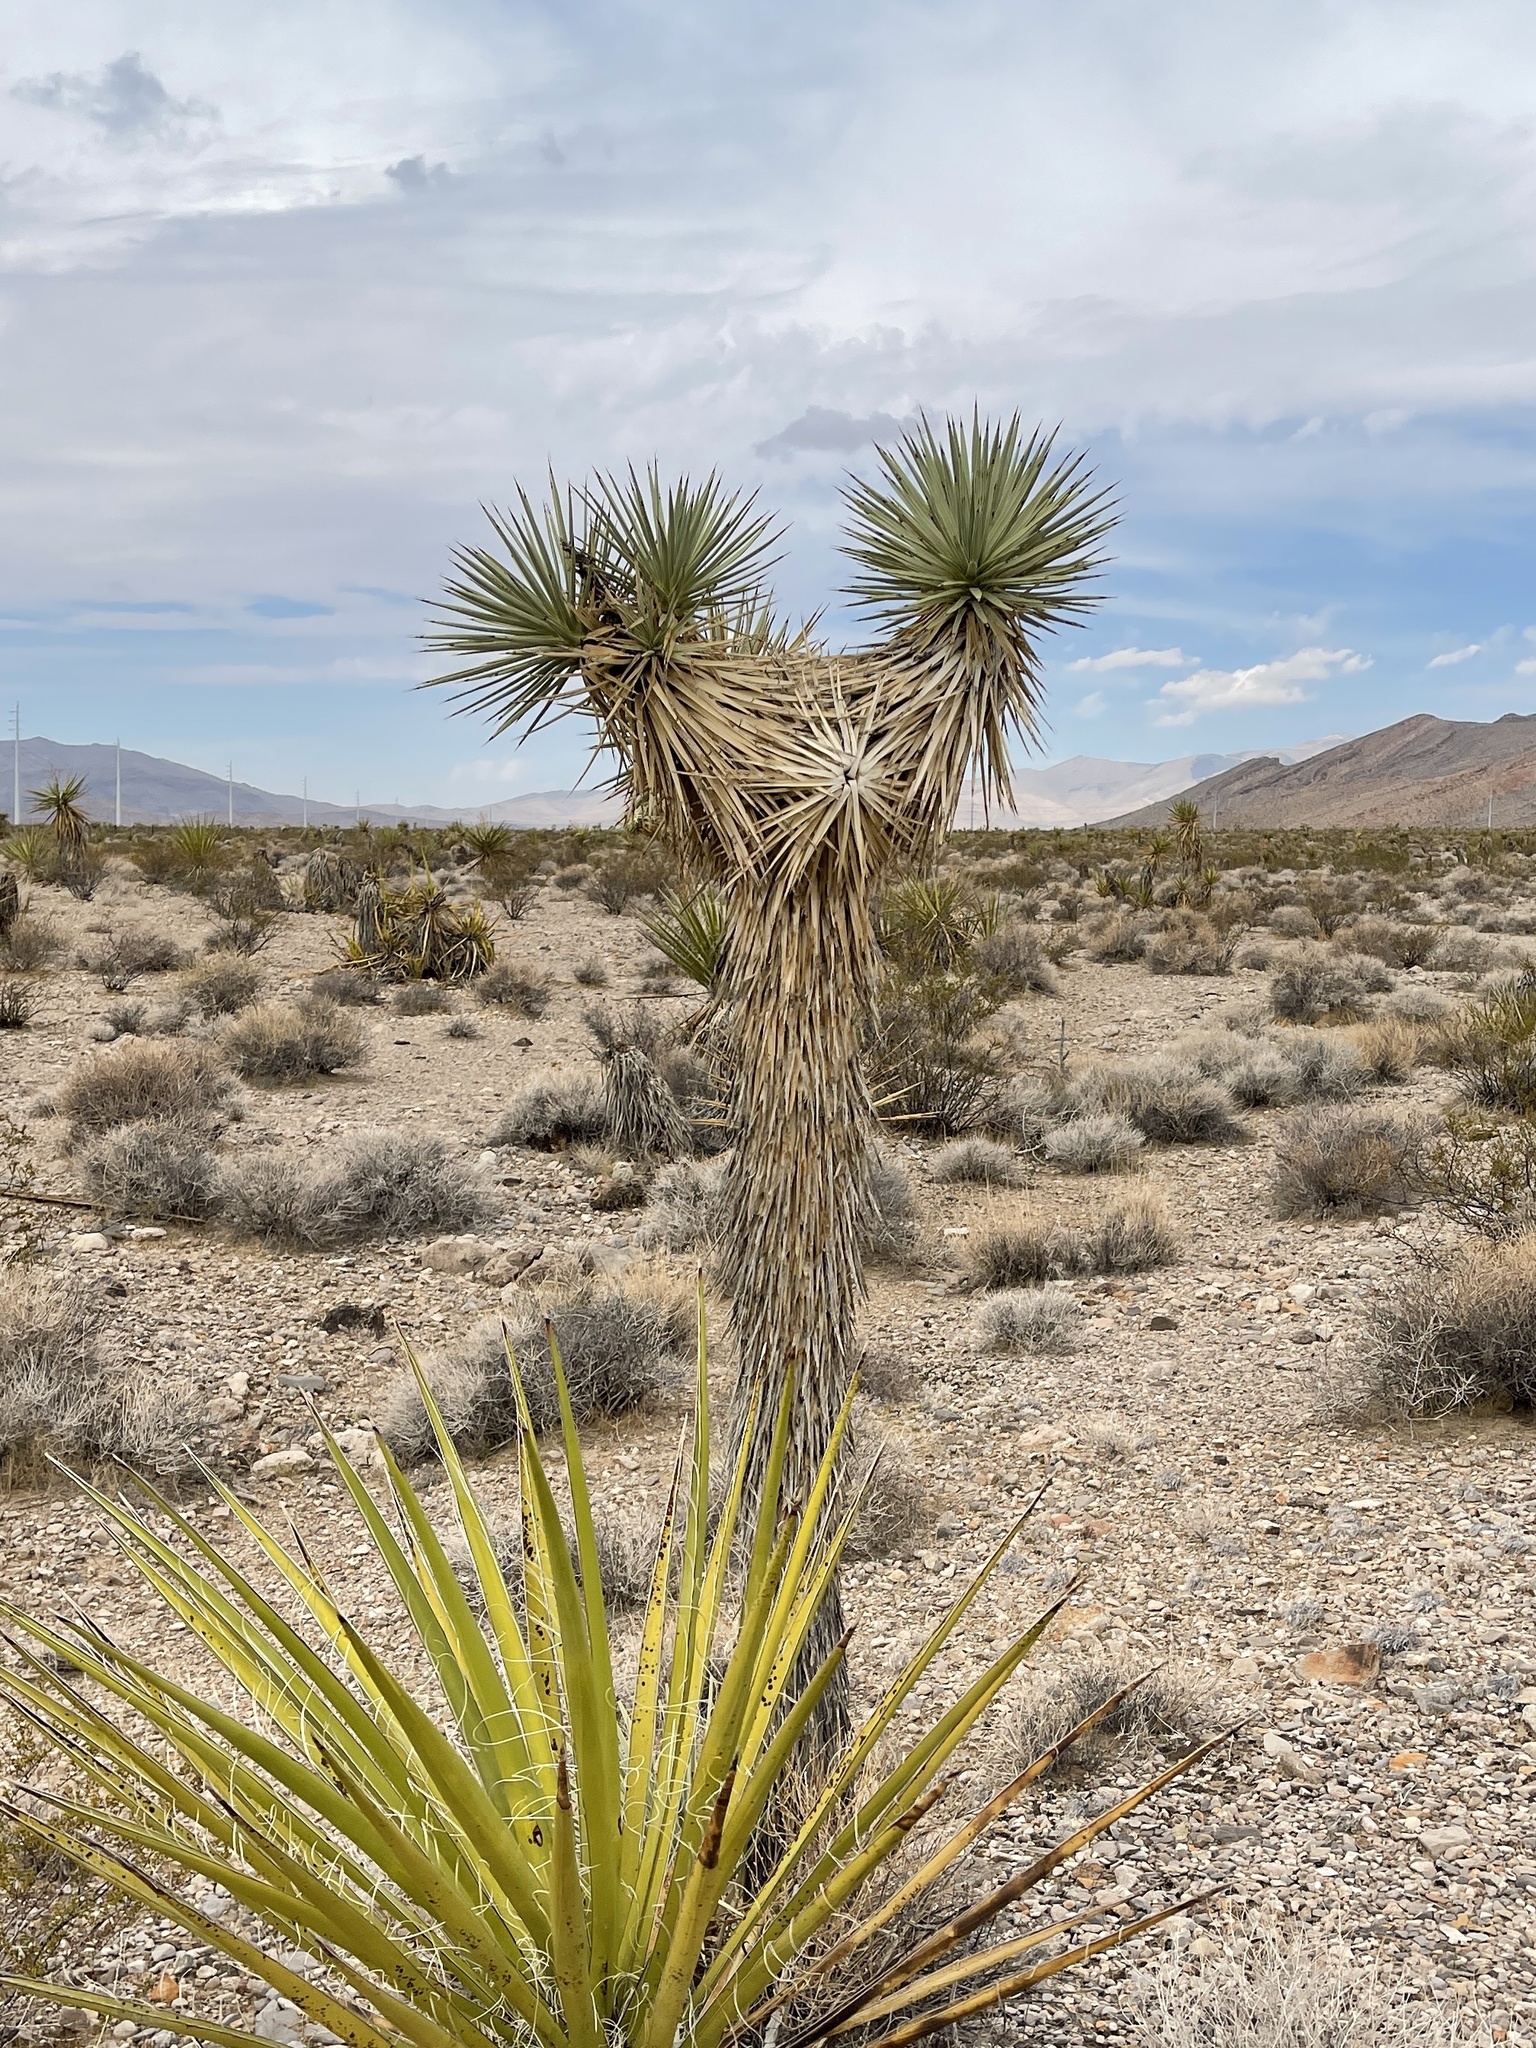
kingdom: Plantae
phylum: Tracheophyta
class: Liliopsida
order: Asparagales
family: Asparagaceae
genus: Yucca
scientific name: Yucca brevifolia
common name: Joshua tree
